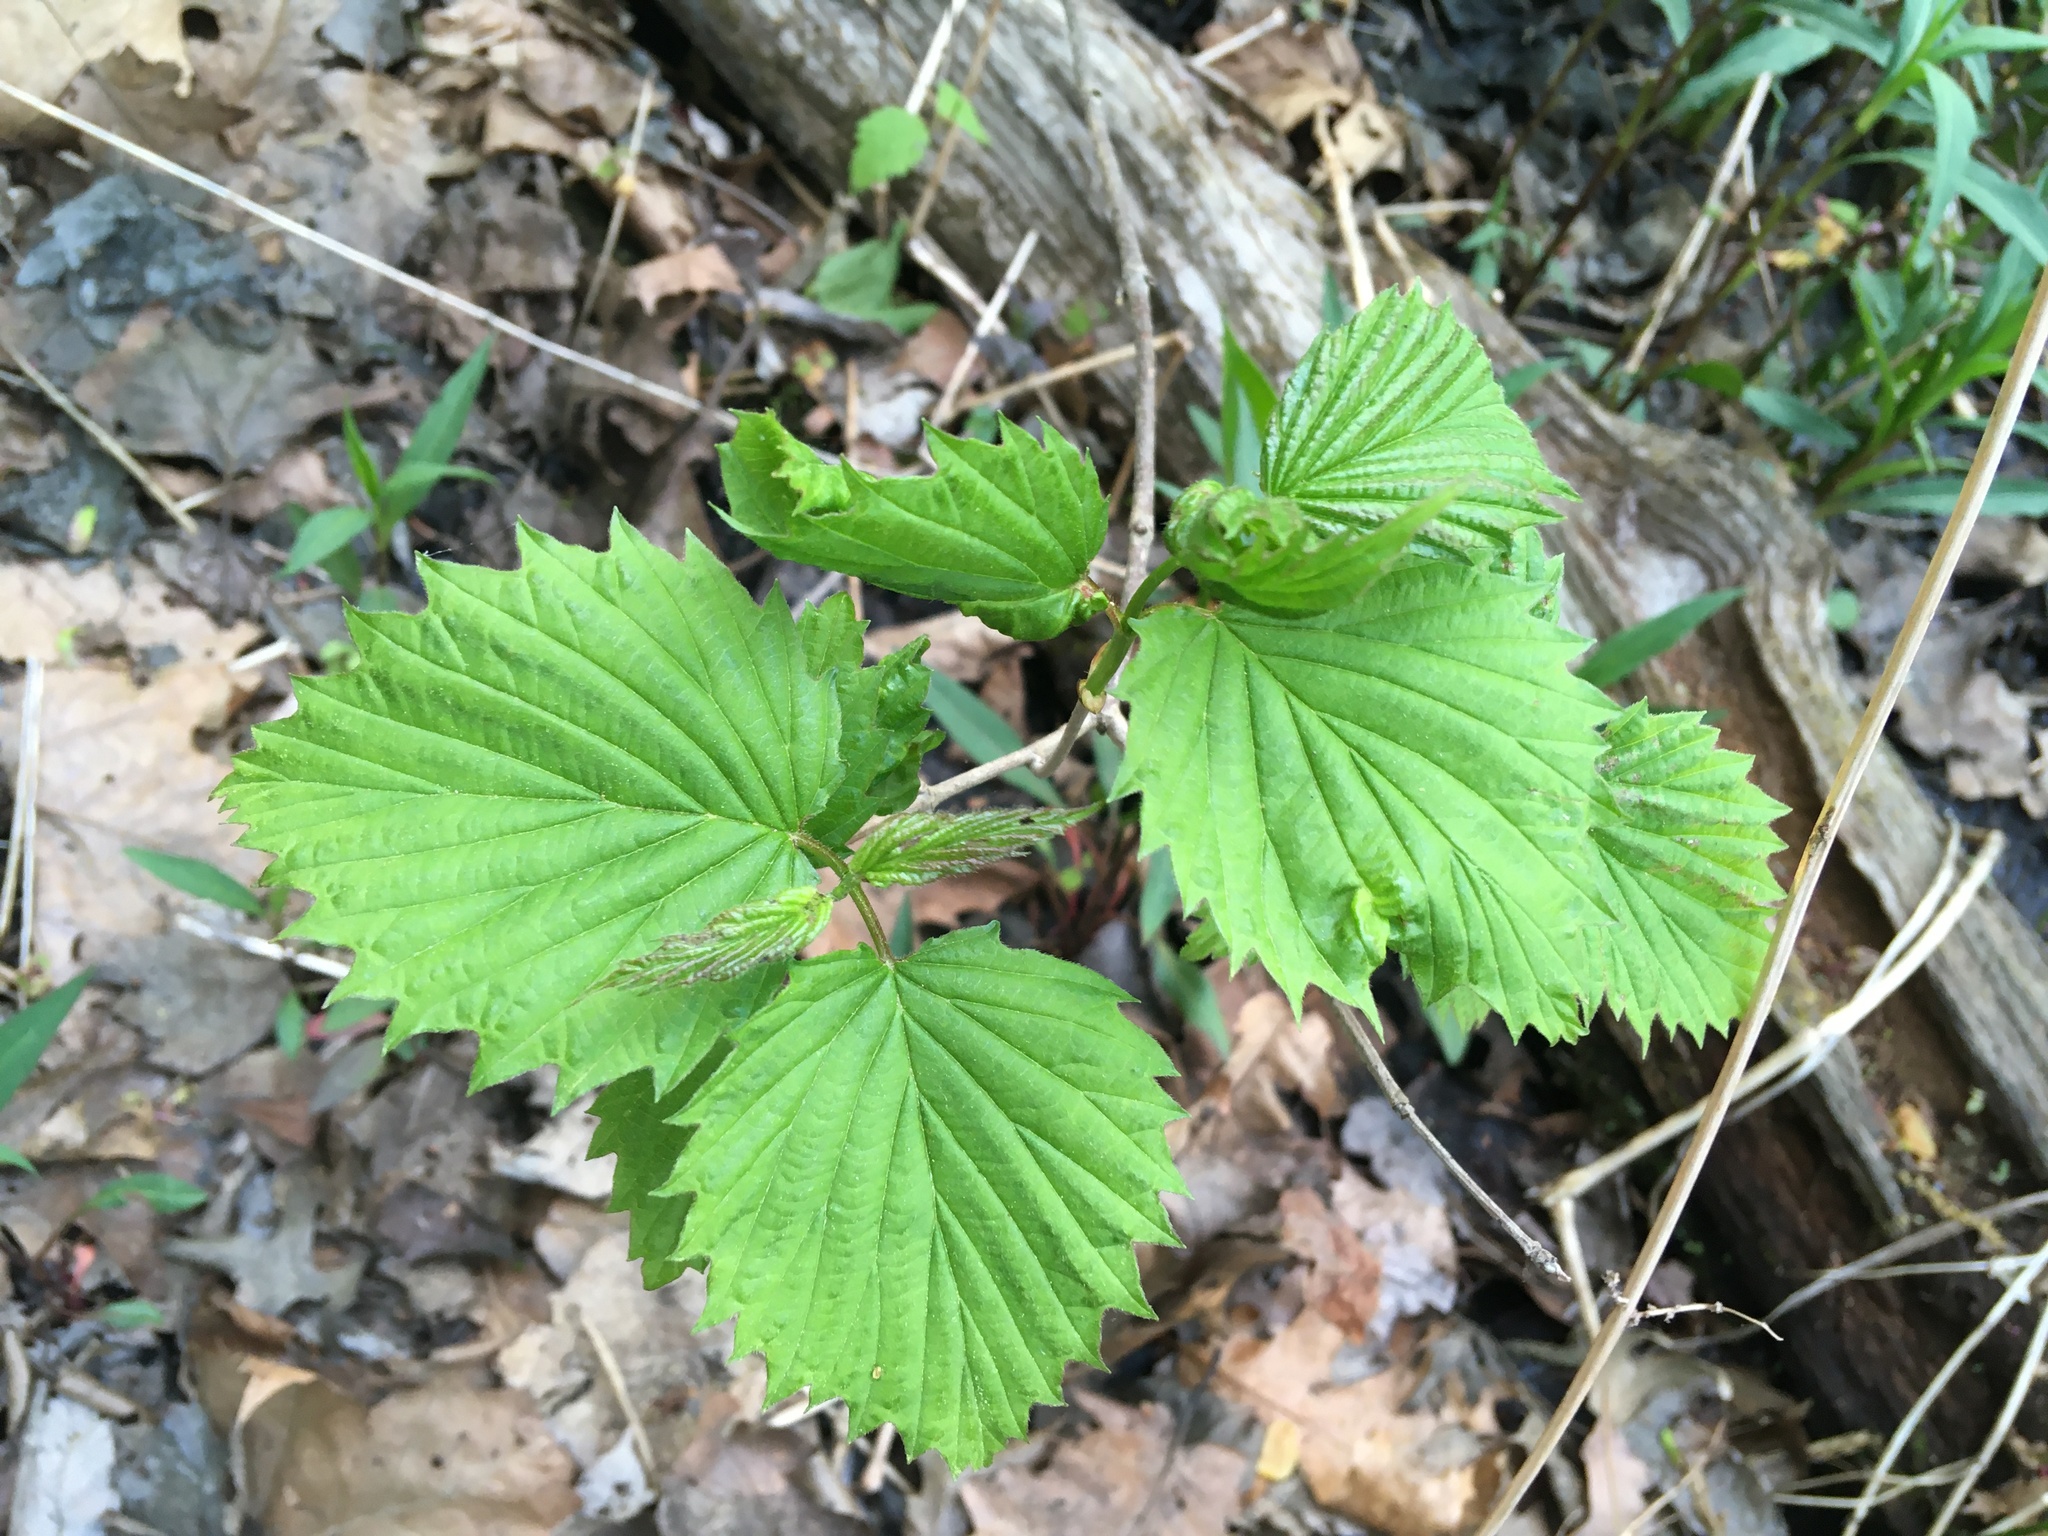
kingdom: Plantae
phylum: Tracheophyta
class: Magnoliopsida
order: Dipsacales
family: Viburnaceae
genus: Viburnum
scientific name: Viburnum dentatum
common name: Arrow-wood
